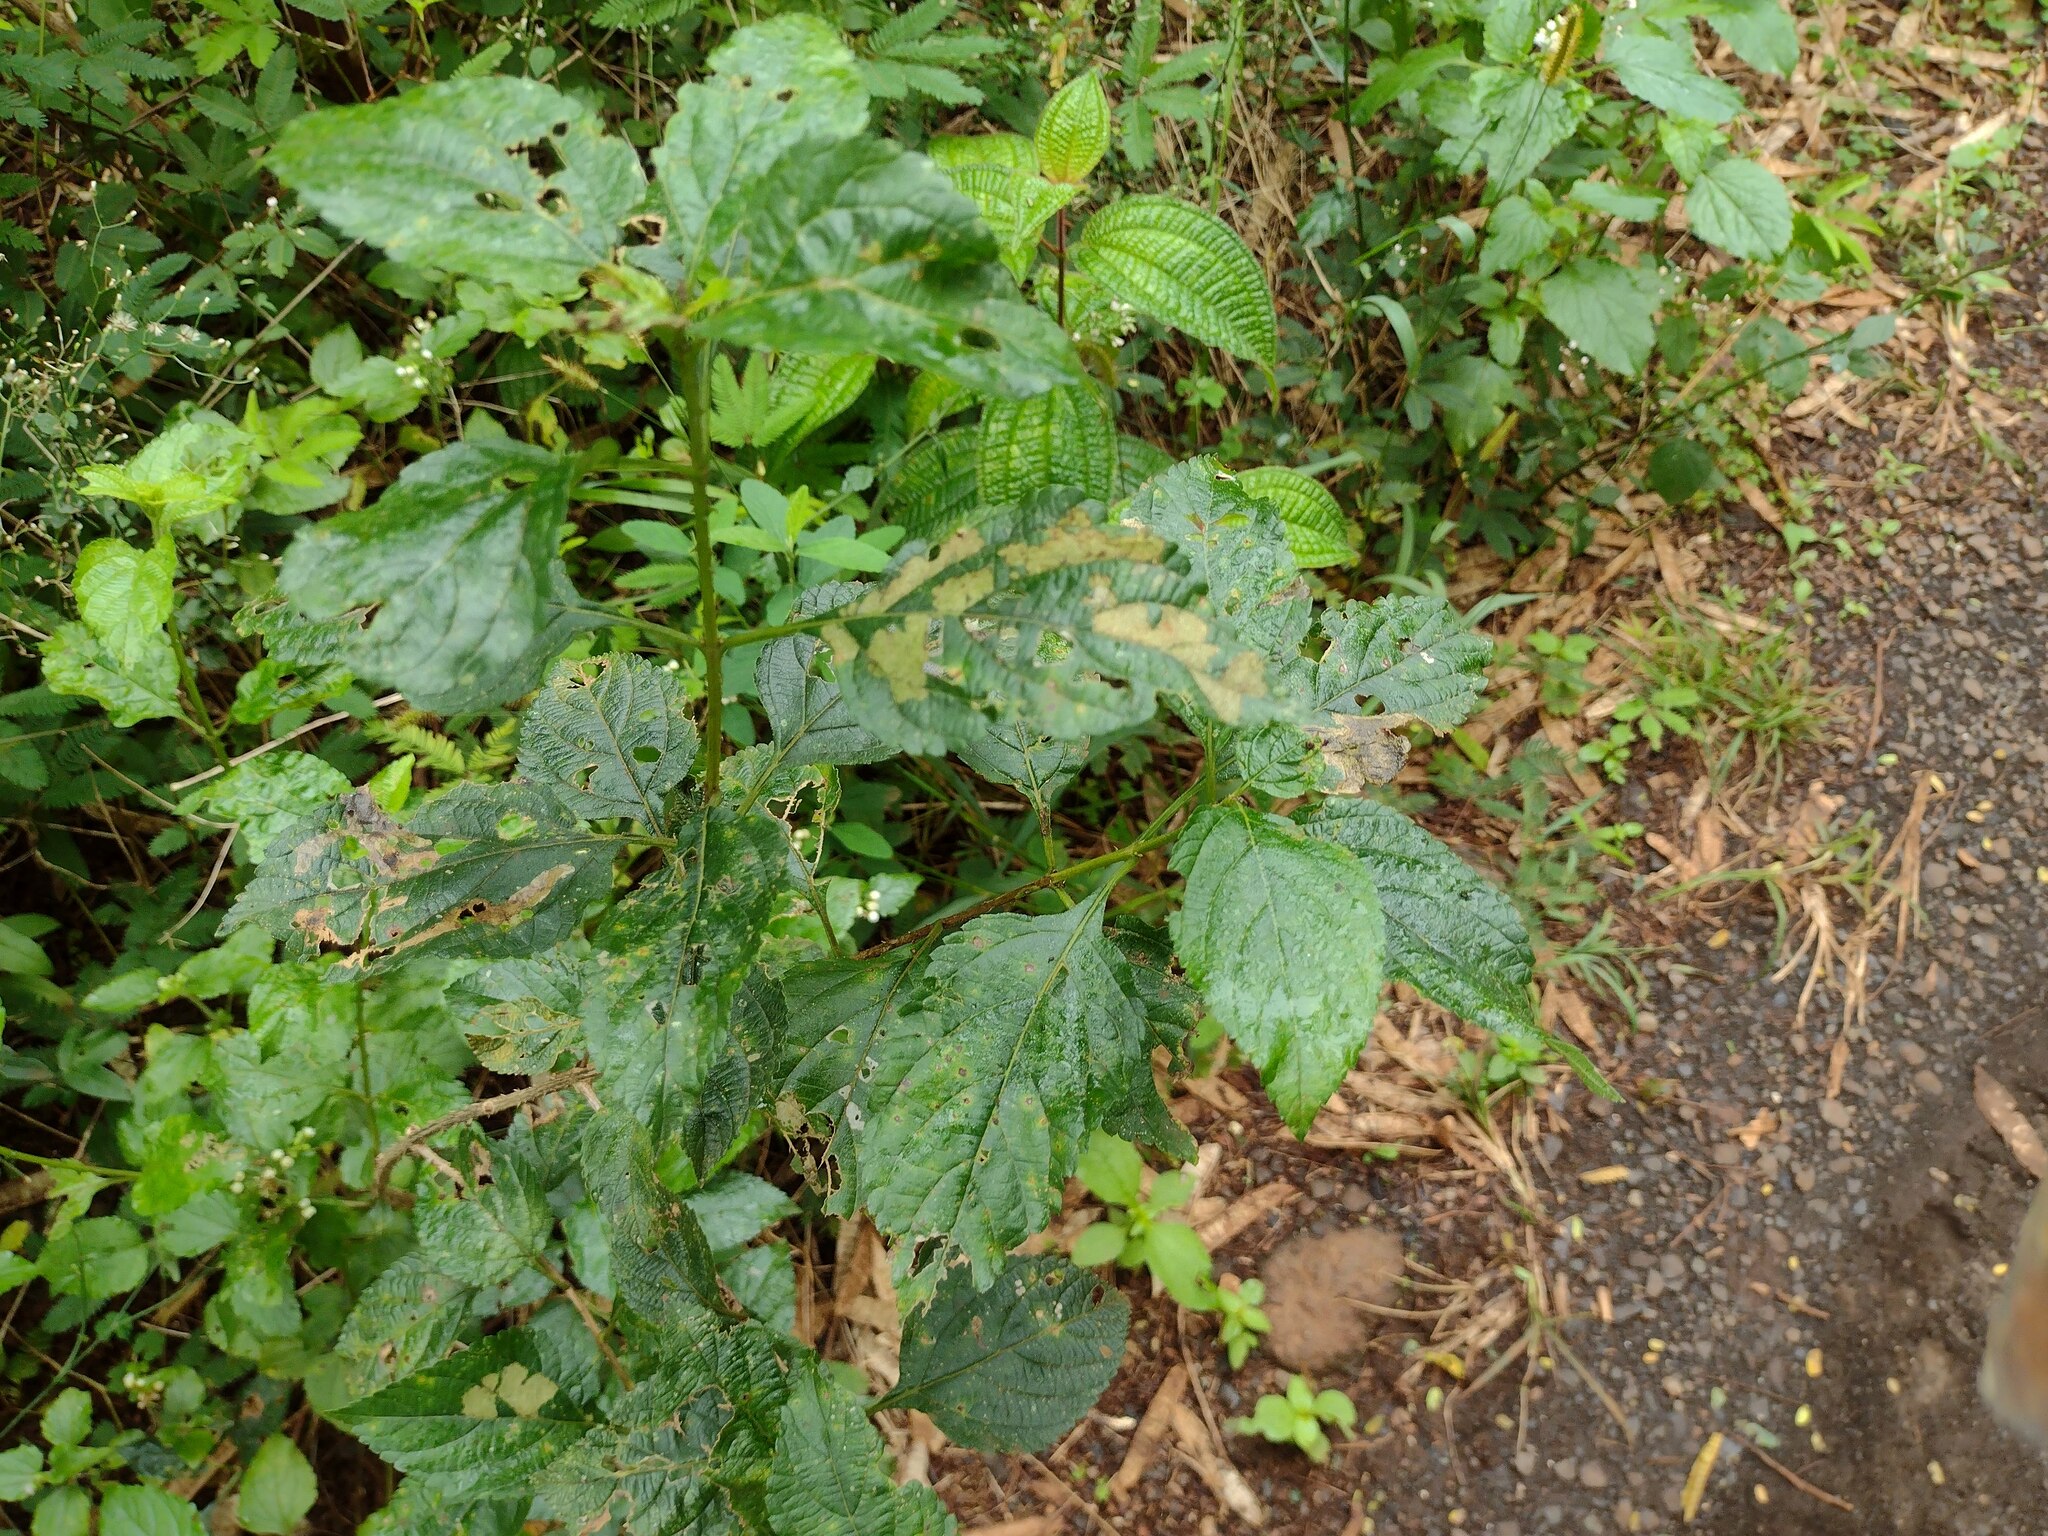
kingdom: Plantae
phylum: Tracheophyta
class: Magnoliopsida
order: Lamiales
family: Verbenaceae
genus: Lantana
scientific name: Lantana camara
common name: Lantana
